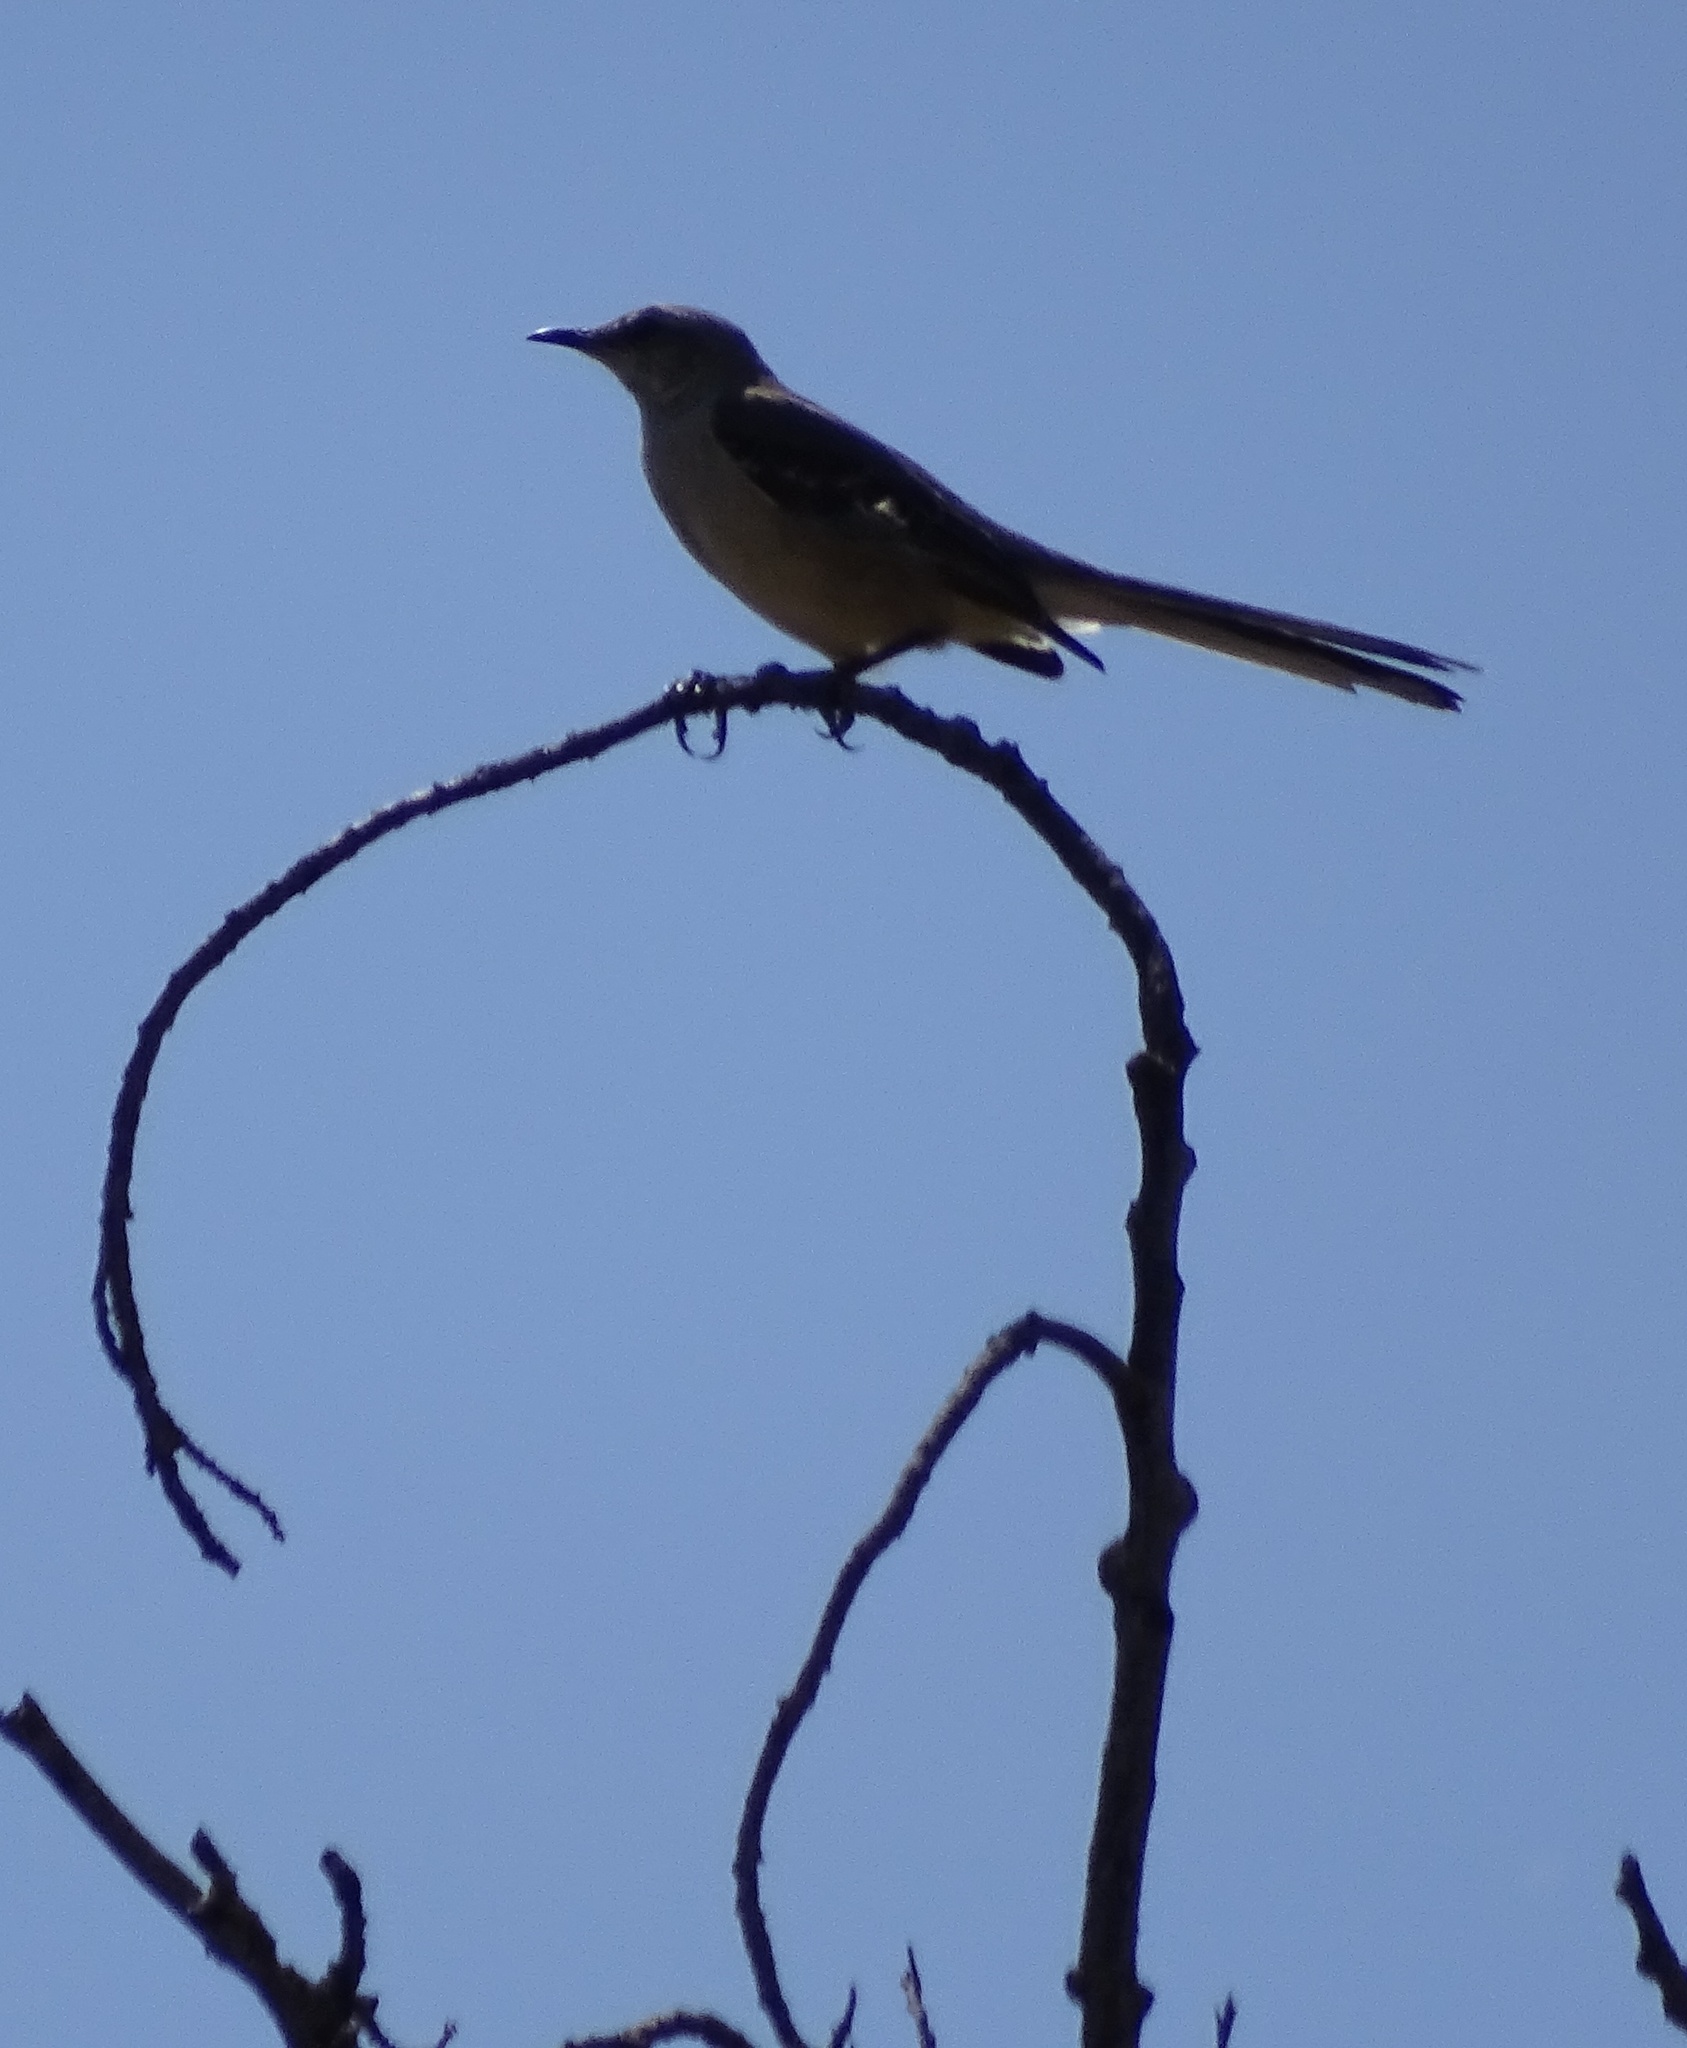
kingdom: Animalia
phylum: Chordata
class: Aves
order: Passeriformes
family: Mimidae
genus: Mimus
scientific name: Mimus polyglottos
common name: Northern mockingbird
